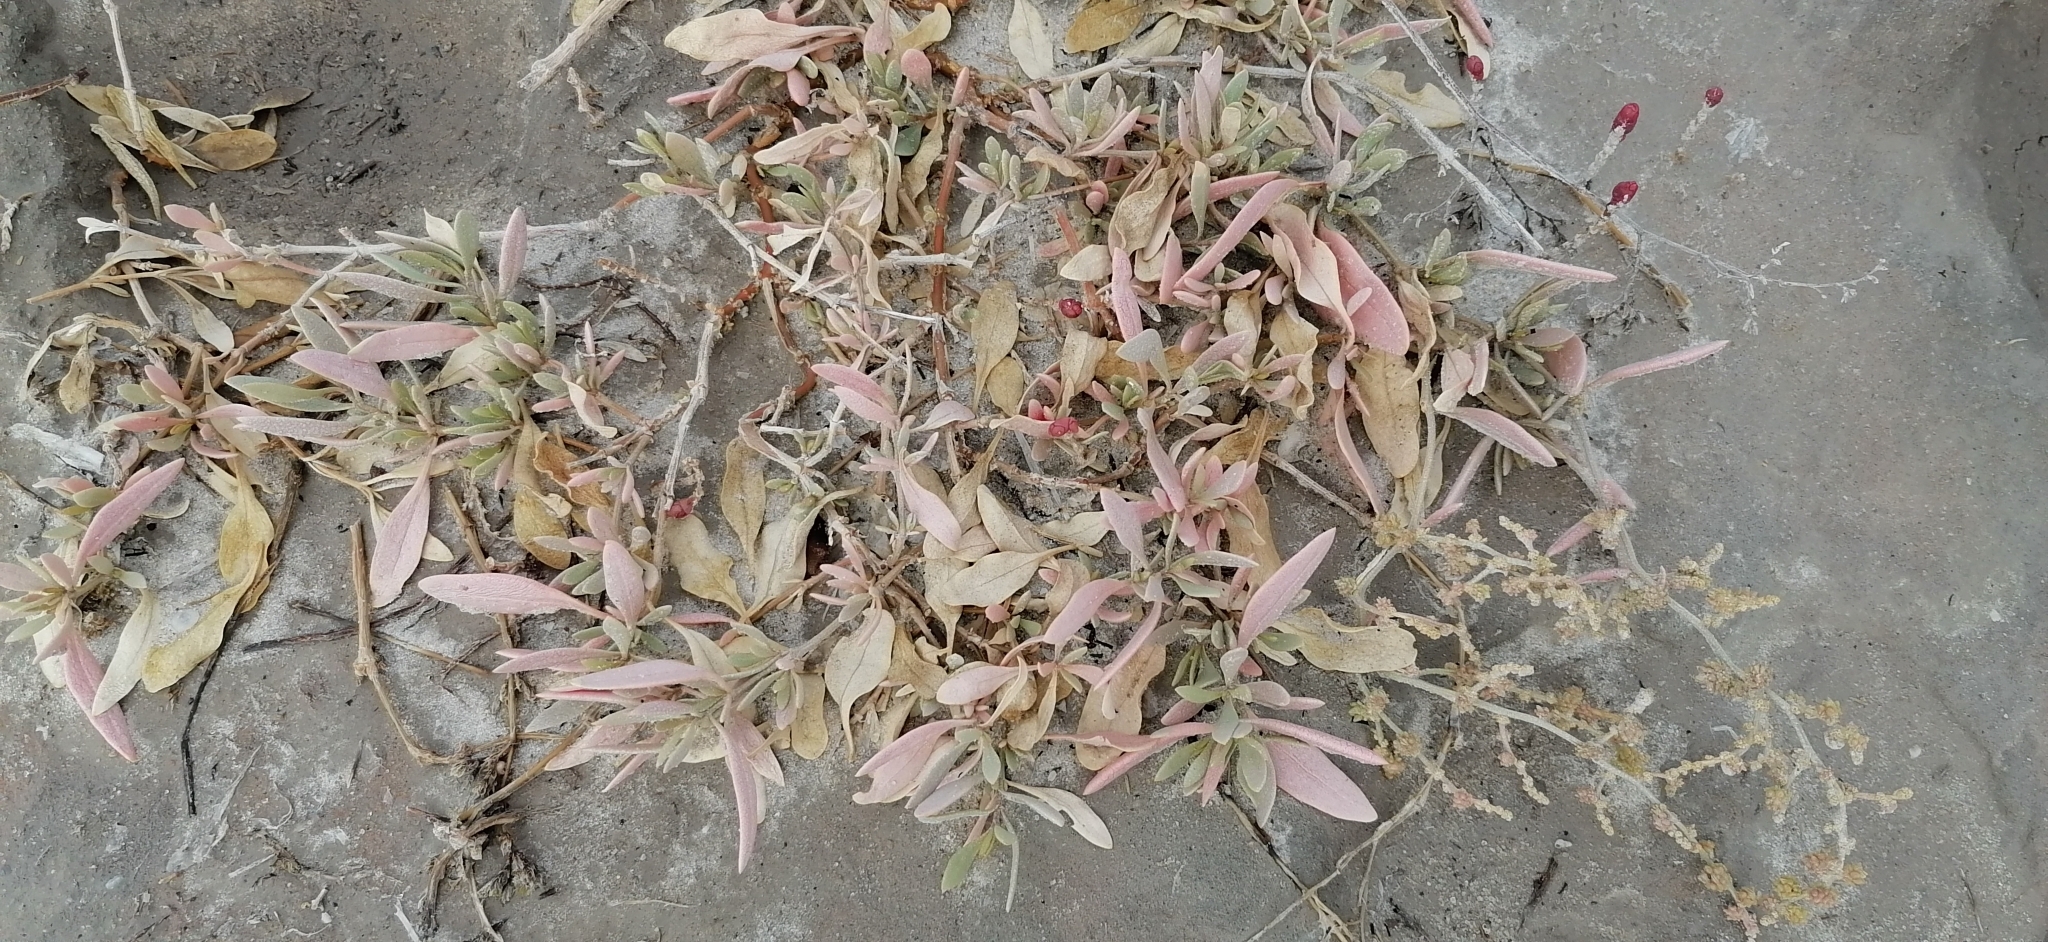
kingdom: Plantae
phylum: Tracheophyta
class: Magnoliopsida
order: Caryophyllales
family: Amaranthaceae
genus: Halimione
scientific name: Halimione verrucifera
